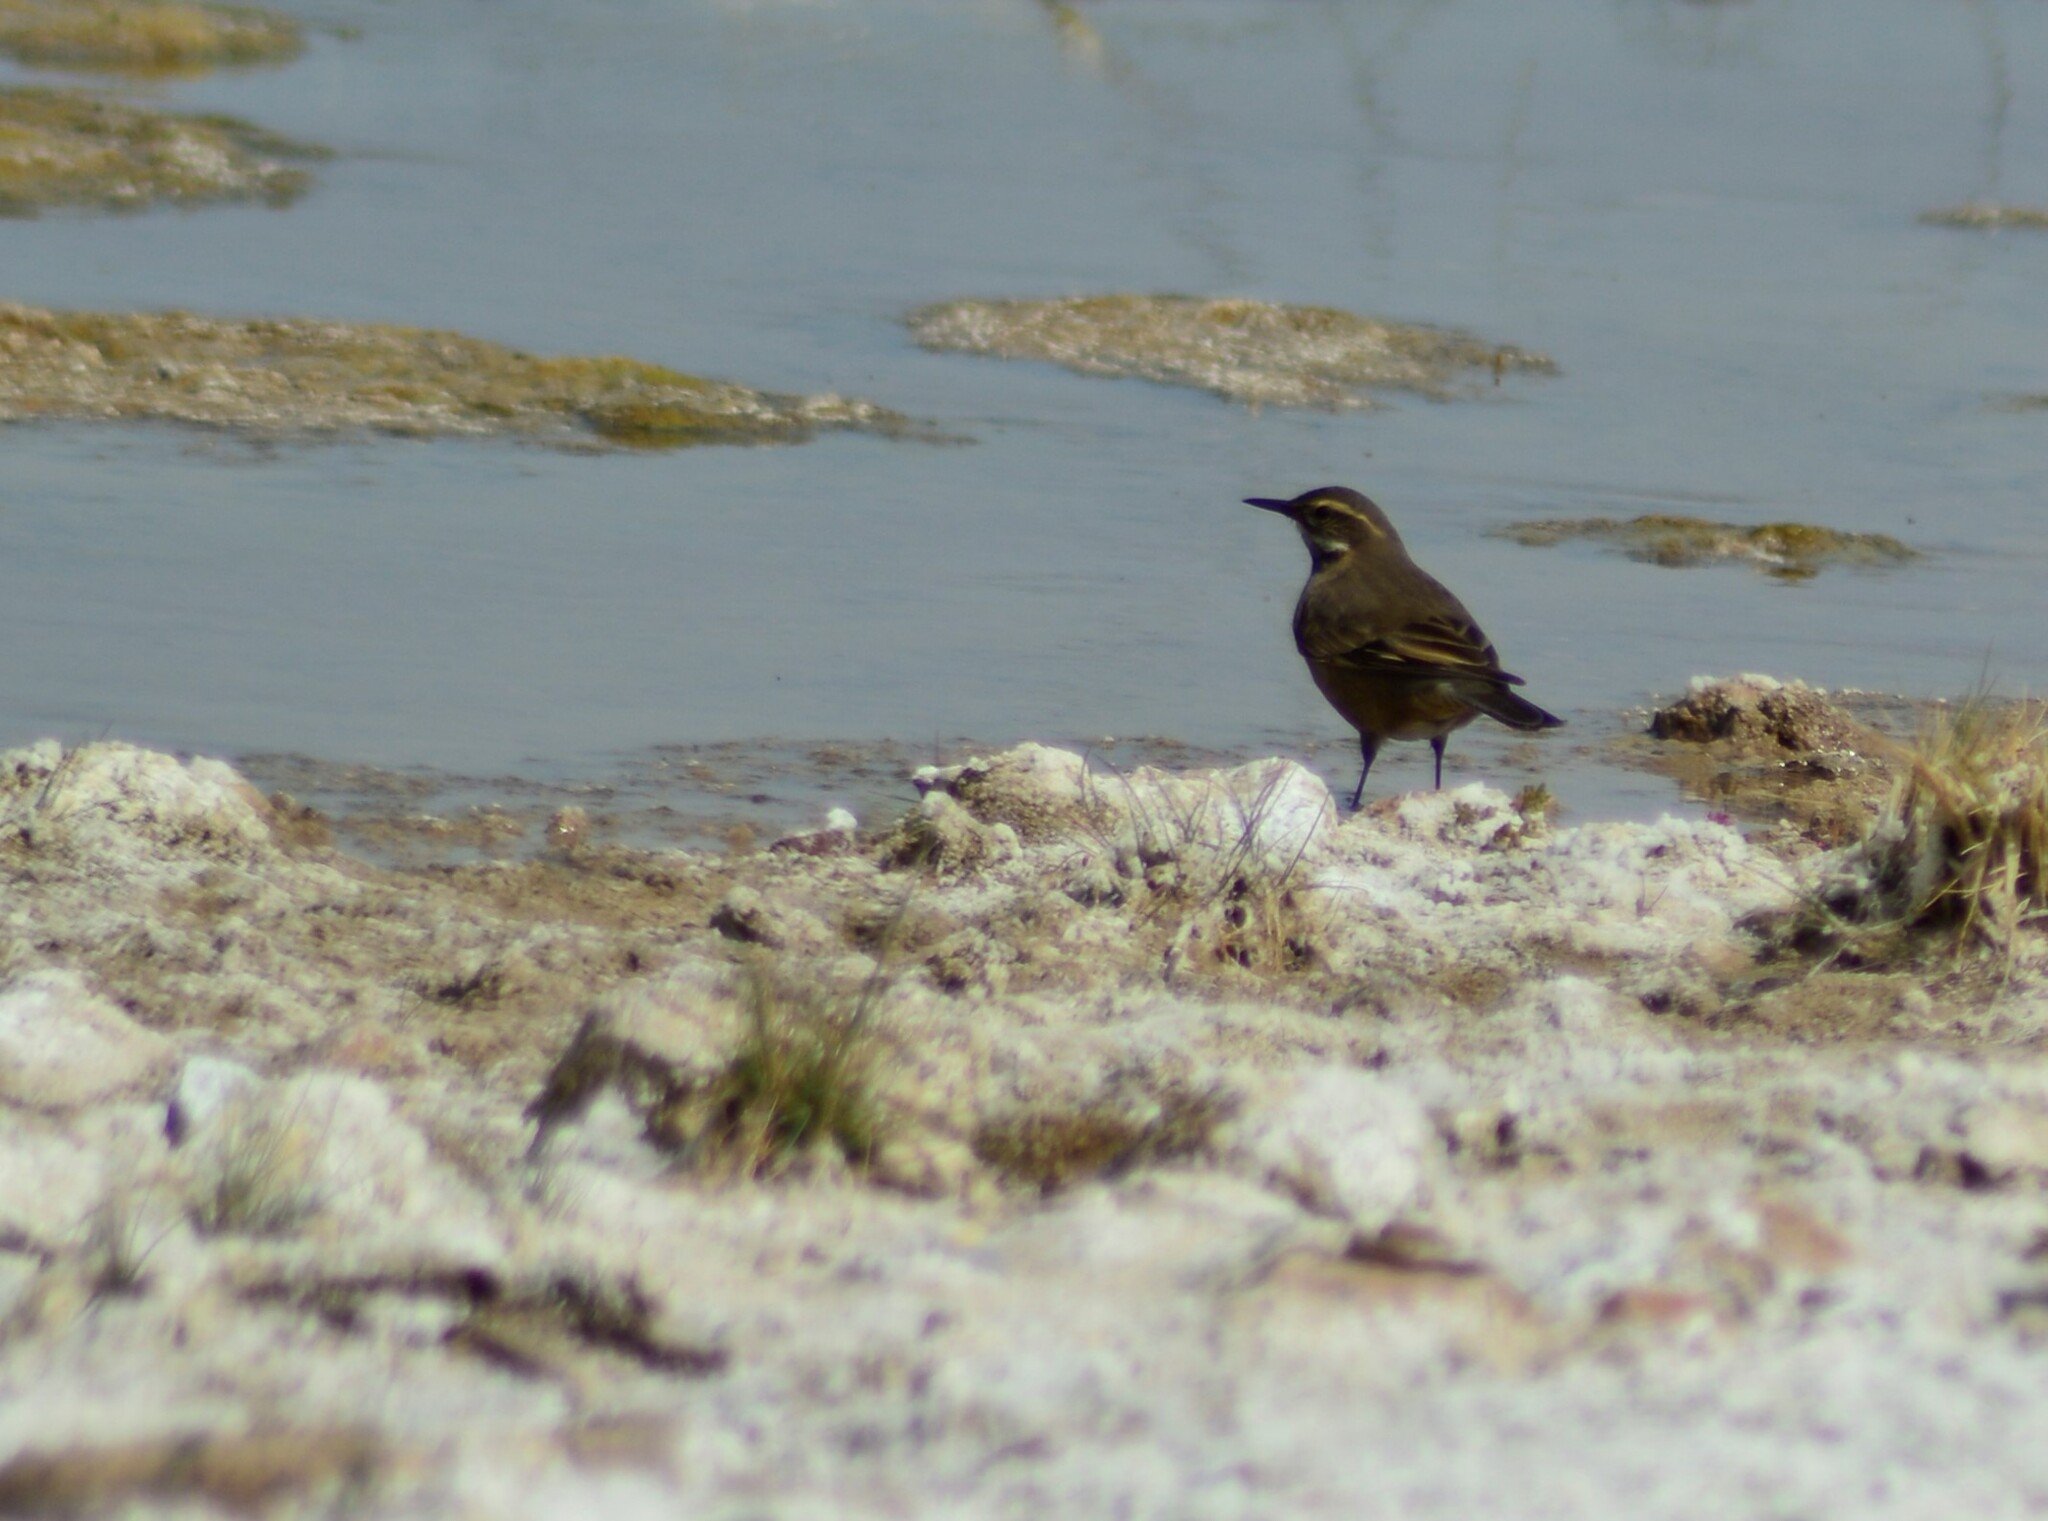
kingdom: Animalia
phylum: Chordata
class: Aves
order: Passeriformes
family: Furnariidae
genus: Cinclodes
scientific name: Cinclodes fuscus
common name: Buff-winged cinclodes
